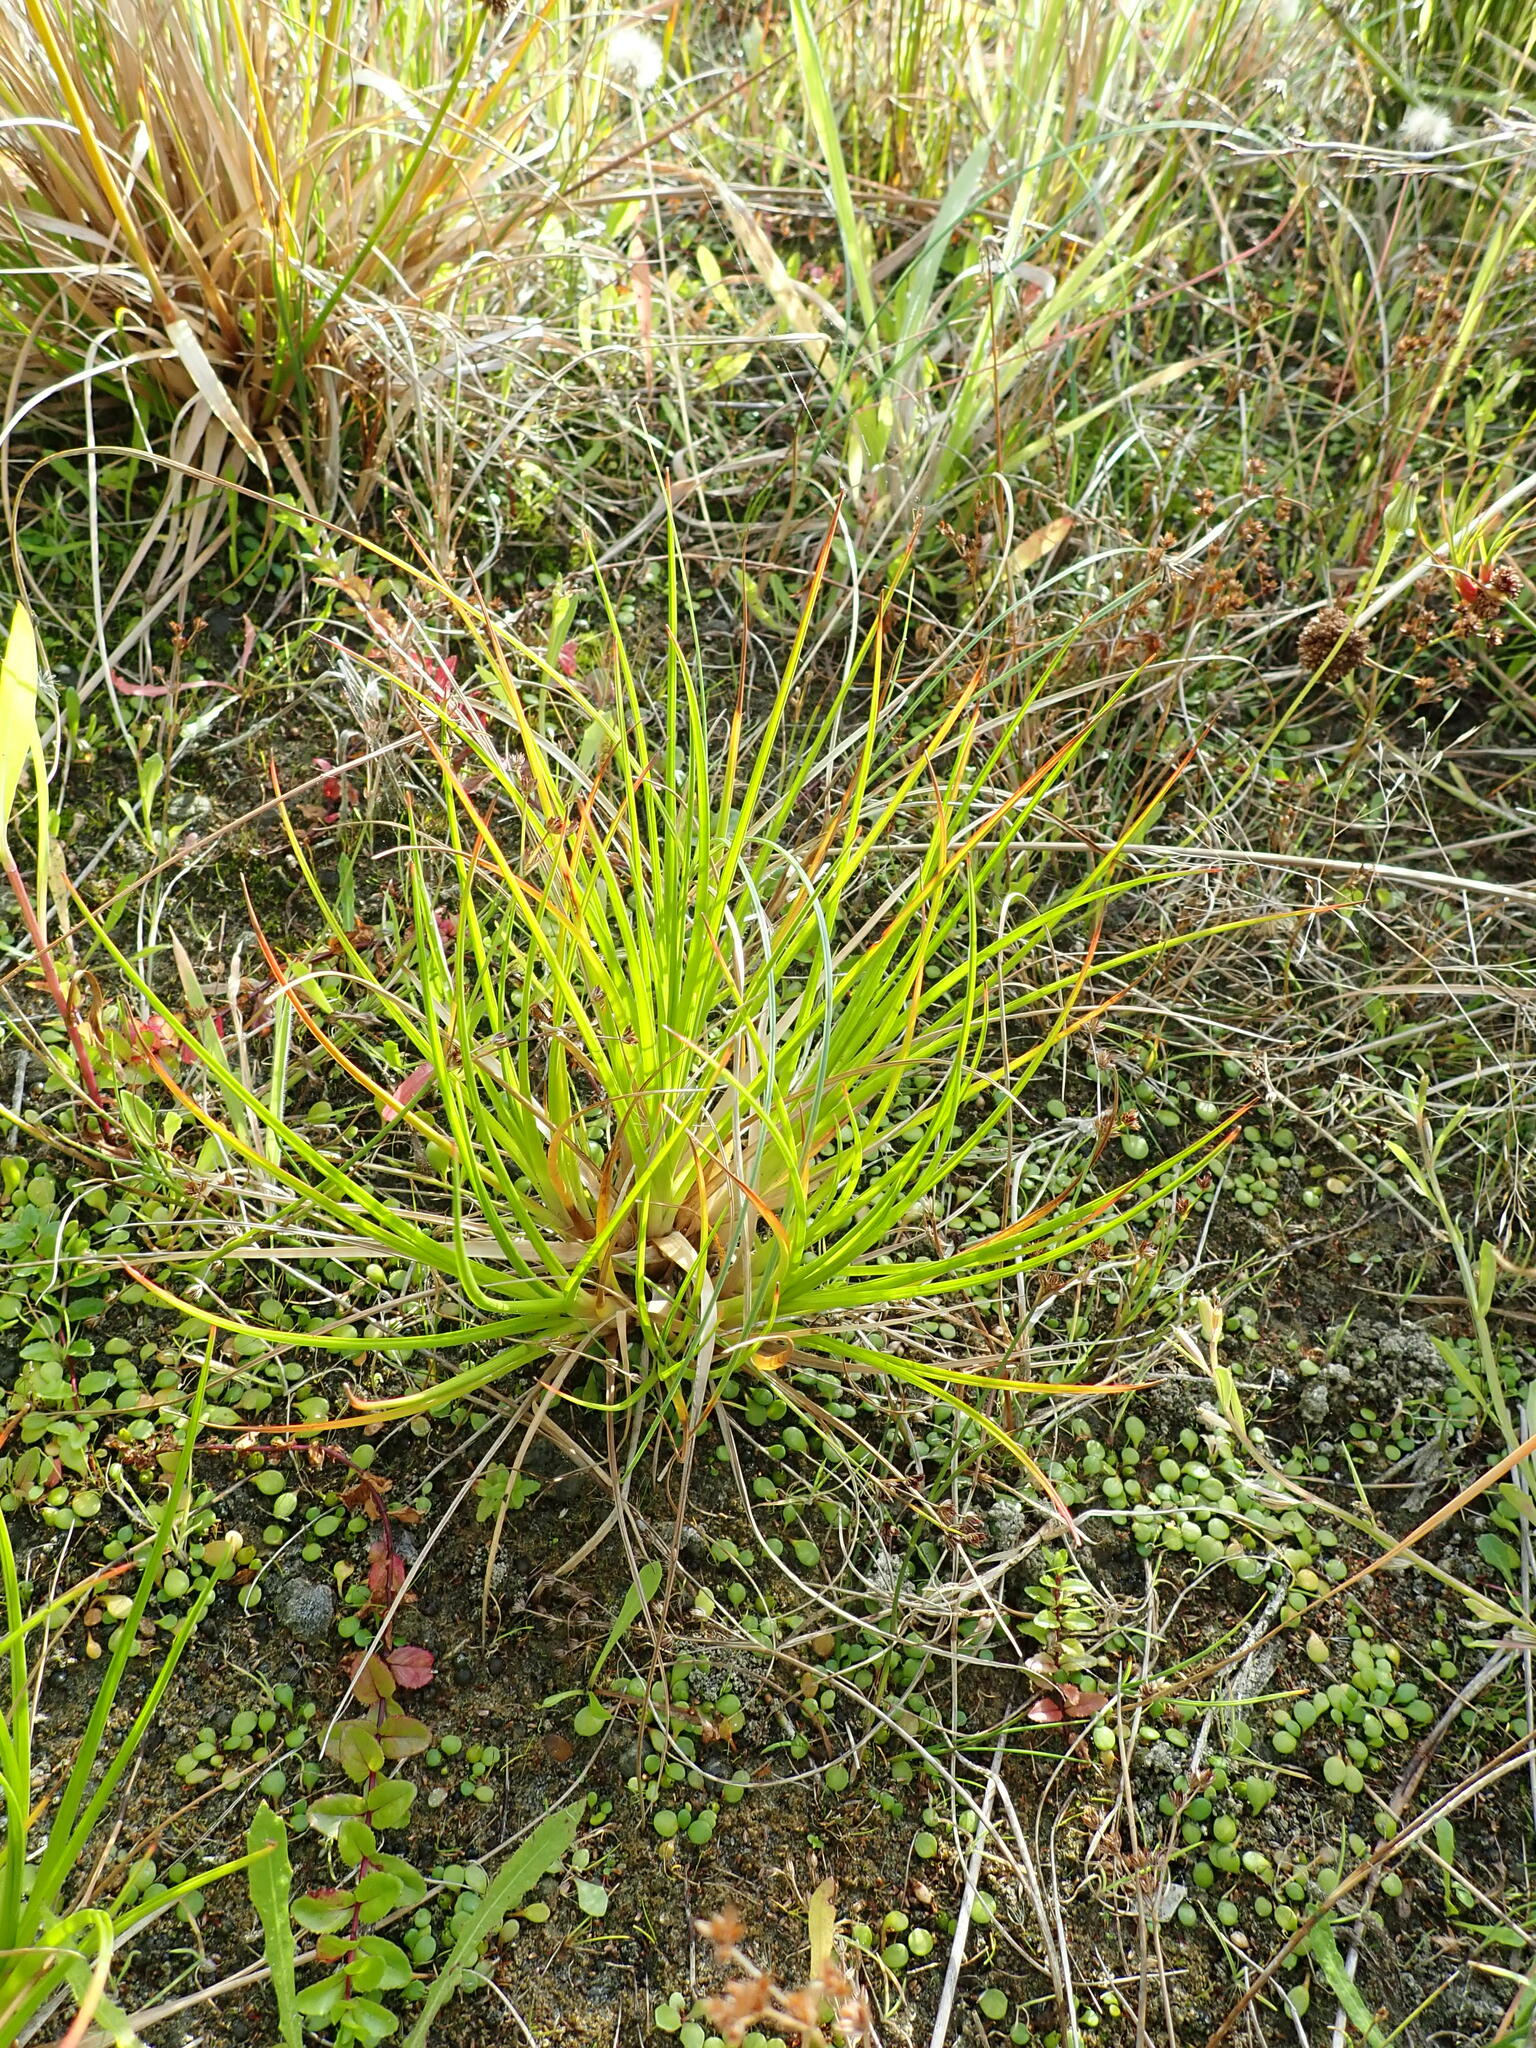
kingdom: Plantae
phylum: Tracheophyta
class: Liliopsida
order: Poales
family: Juncaceae
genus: Juncus
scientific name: Juncus caespiticius
